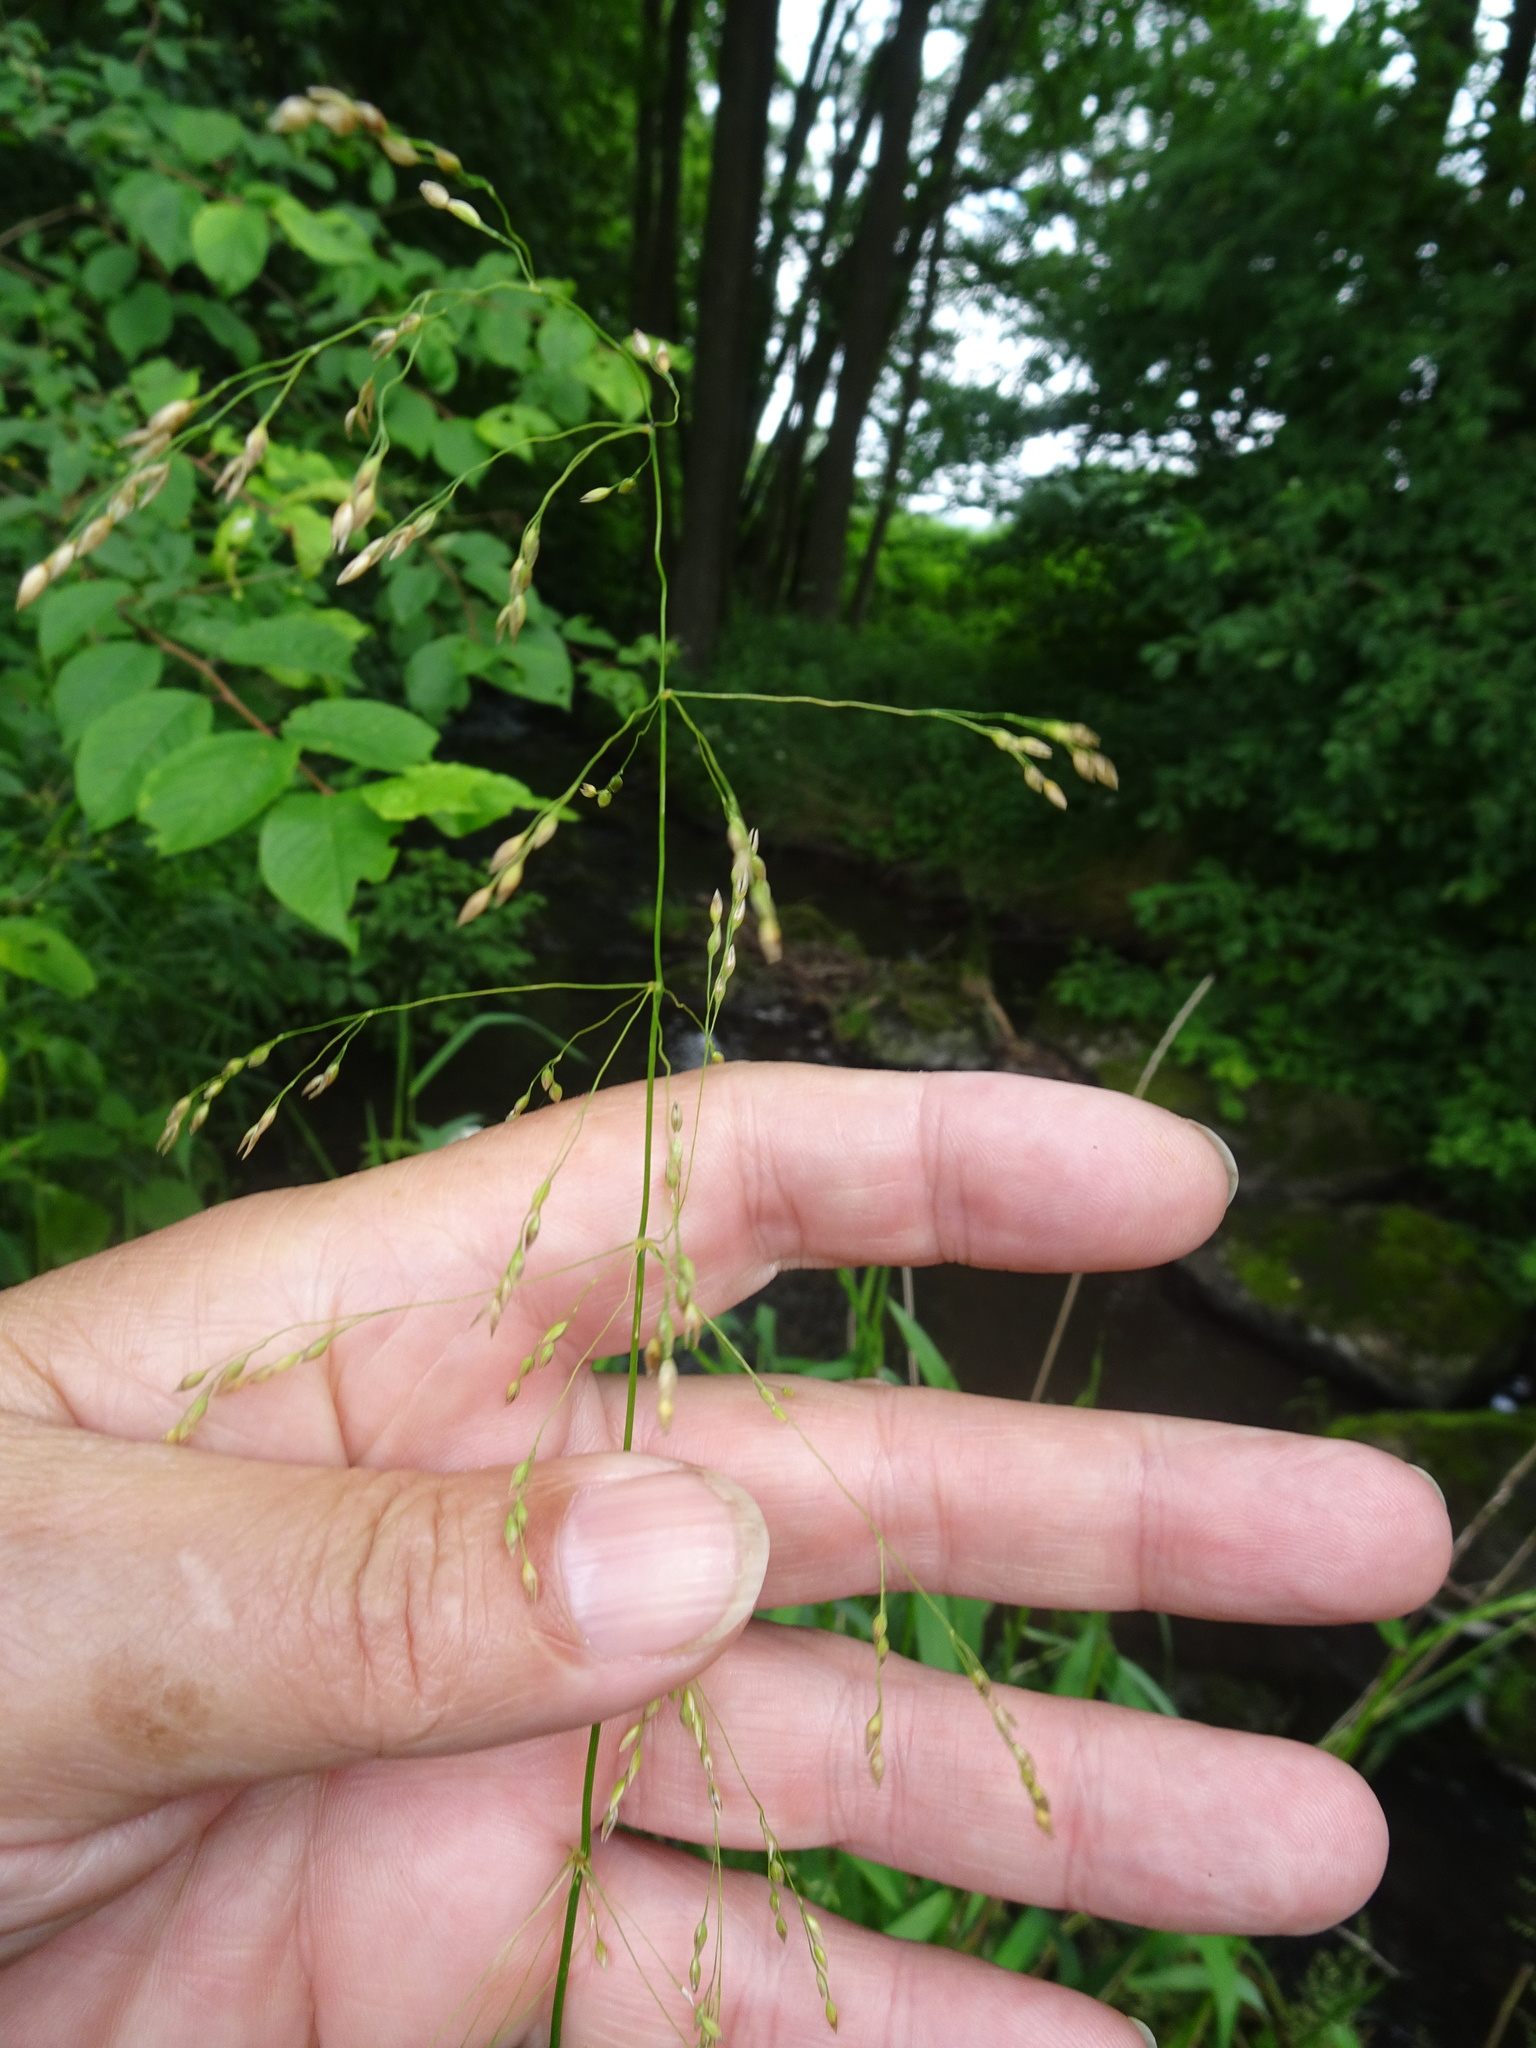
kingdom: Plantae
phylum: Tracheophyta
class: Liliopsida
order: Poales
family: Poaceae
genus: Milium
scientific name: Milium effusum
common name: Wood millet
